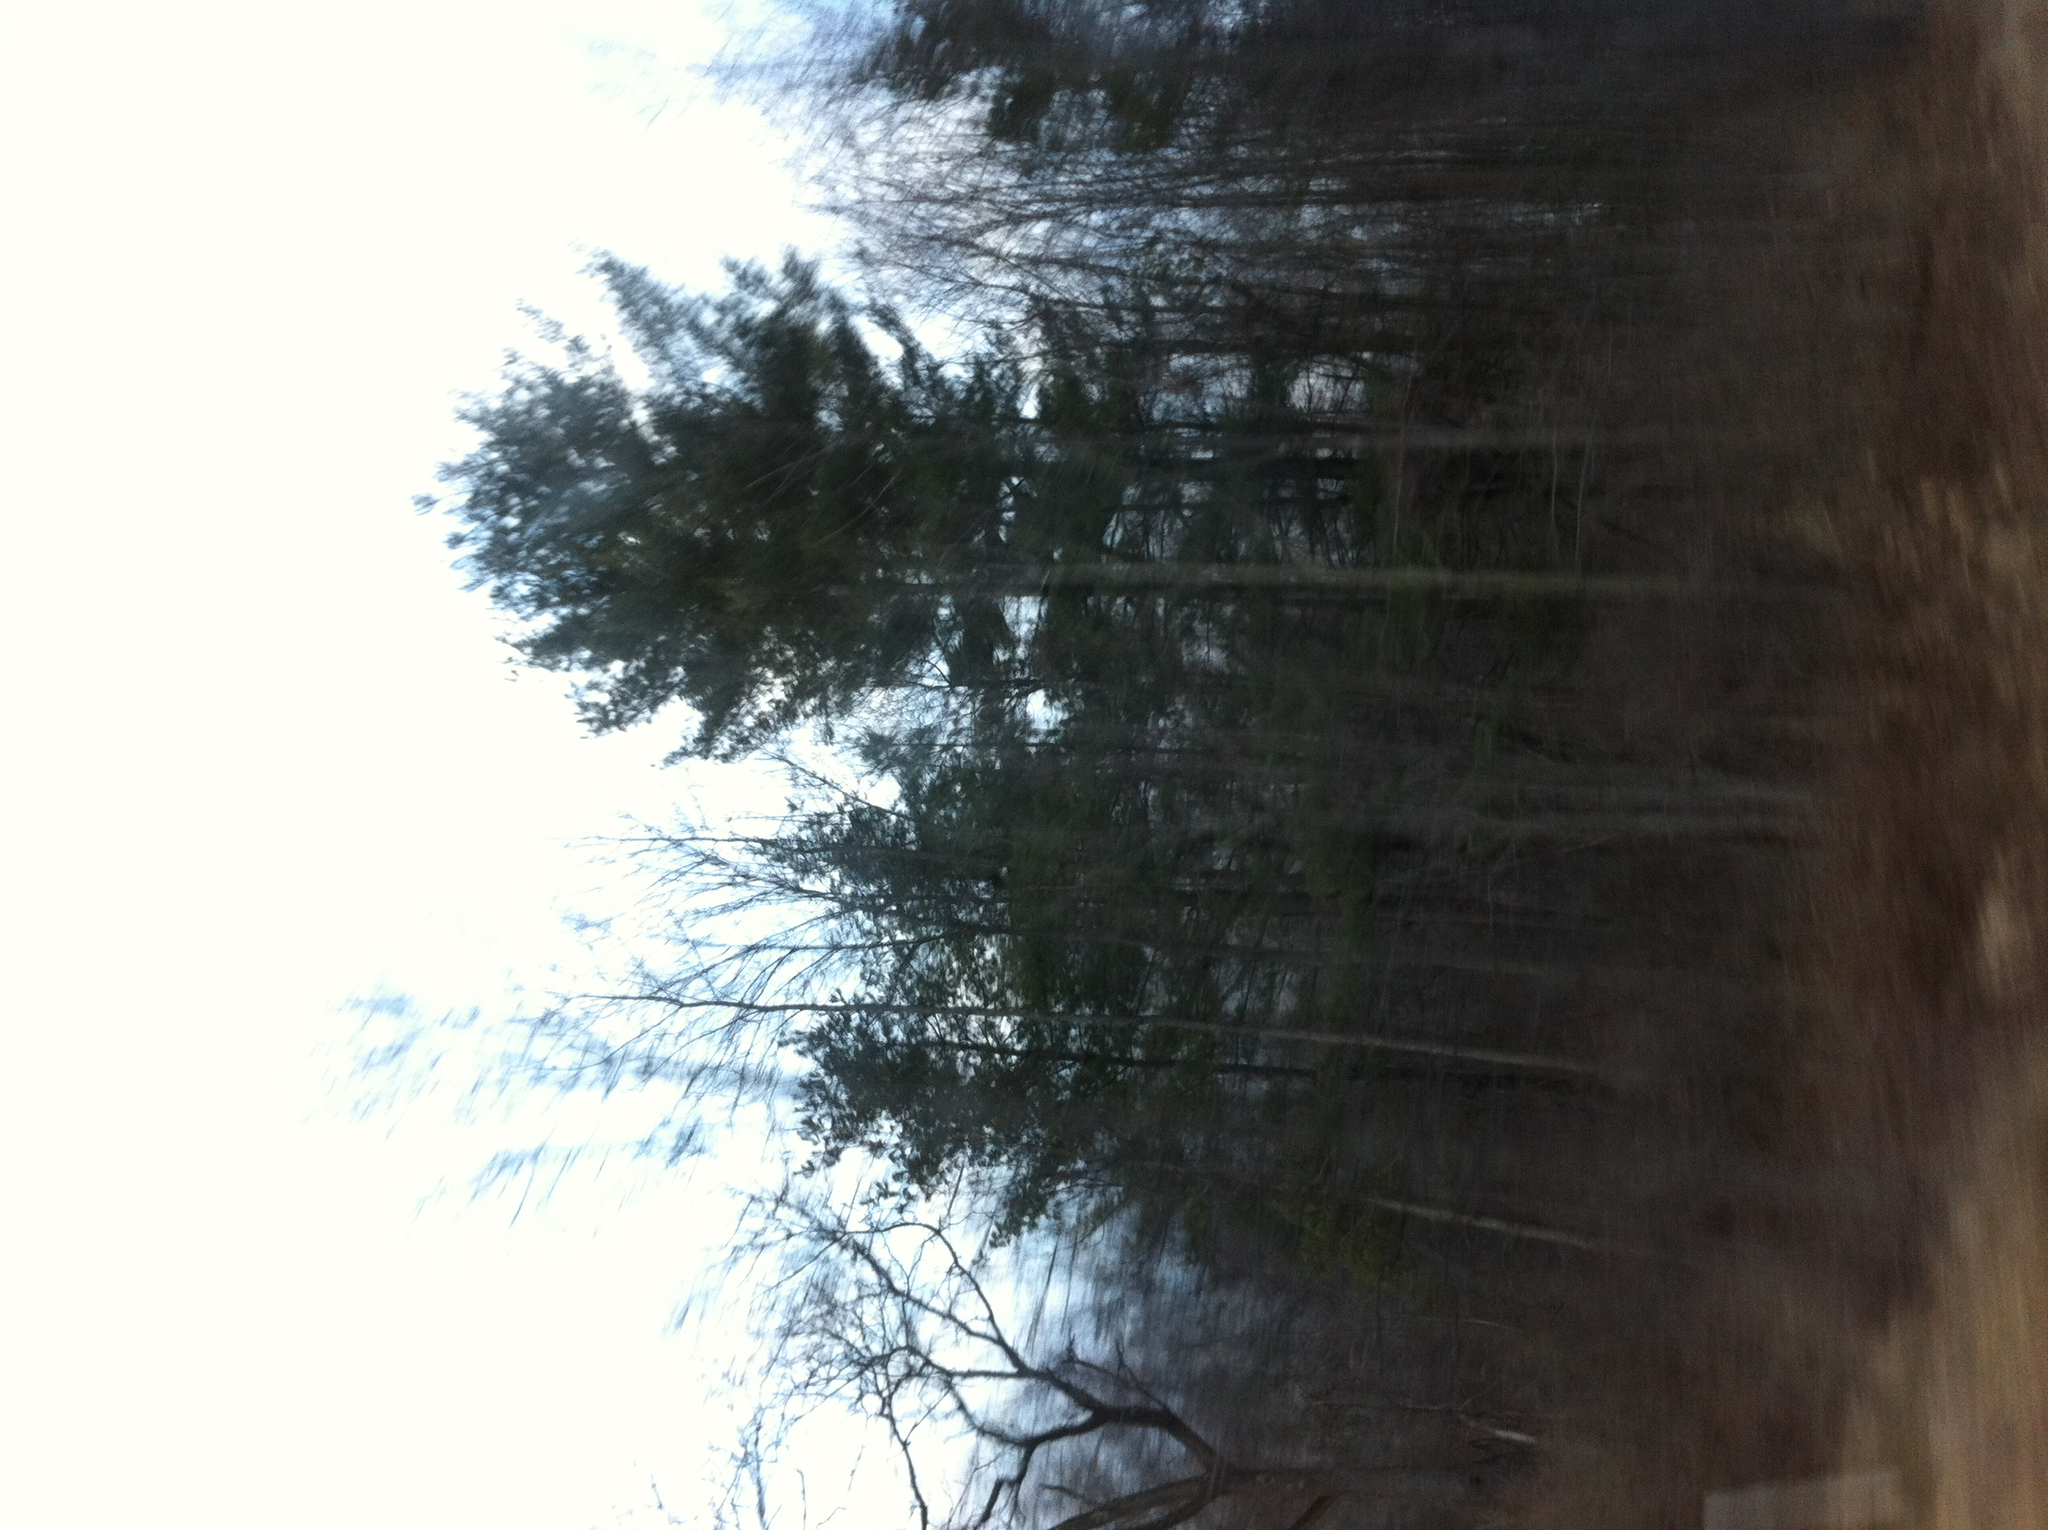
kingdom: Plantae
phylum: Tracheophyta
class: Pinopsida
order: Pinales
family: Pinaceae
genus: Pinus
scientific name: Pinus strobus
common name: Weymouth pine
